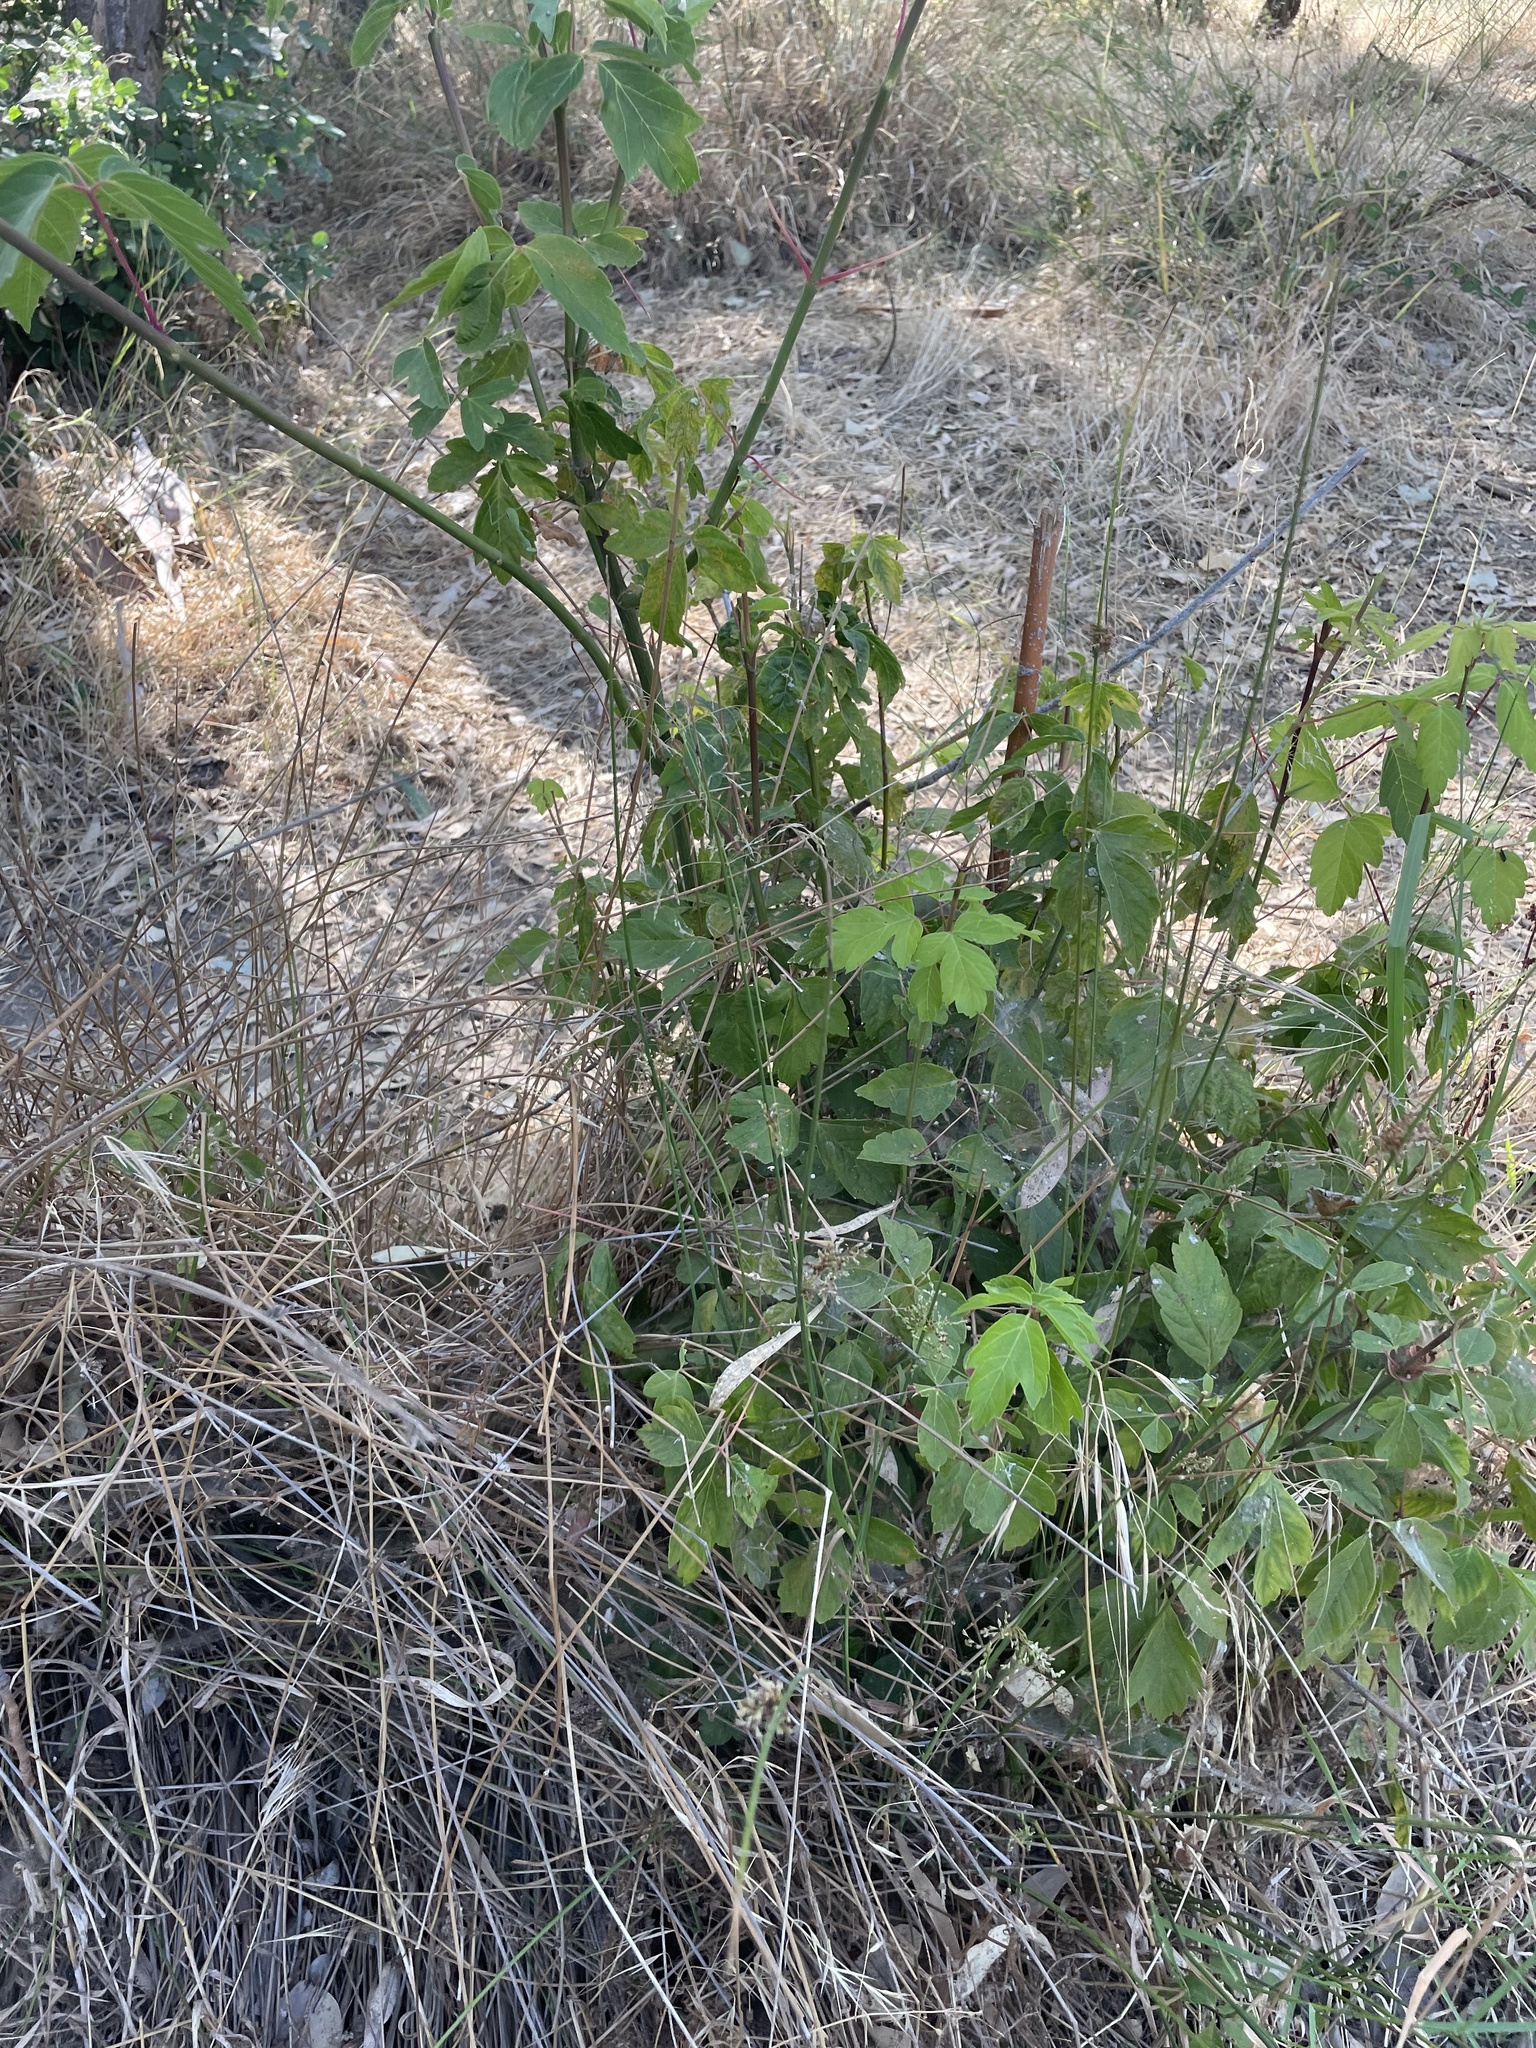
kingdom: Plantae
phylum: Tracheophyta
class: Magnoliopsida
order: Sapindales
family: Sapindaceae
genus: Acer
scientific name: Acer negundo
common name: Ashleaf maple
